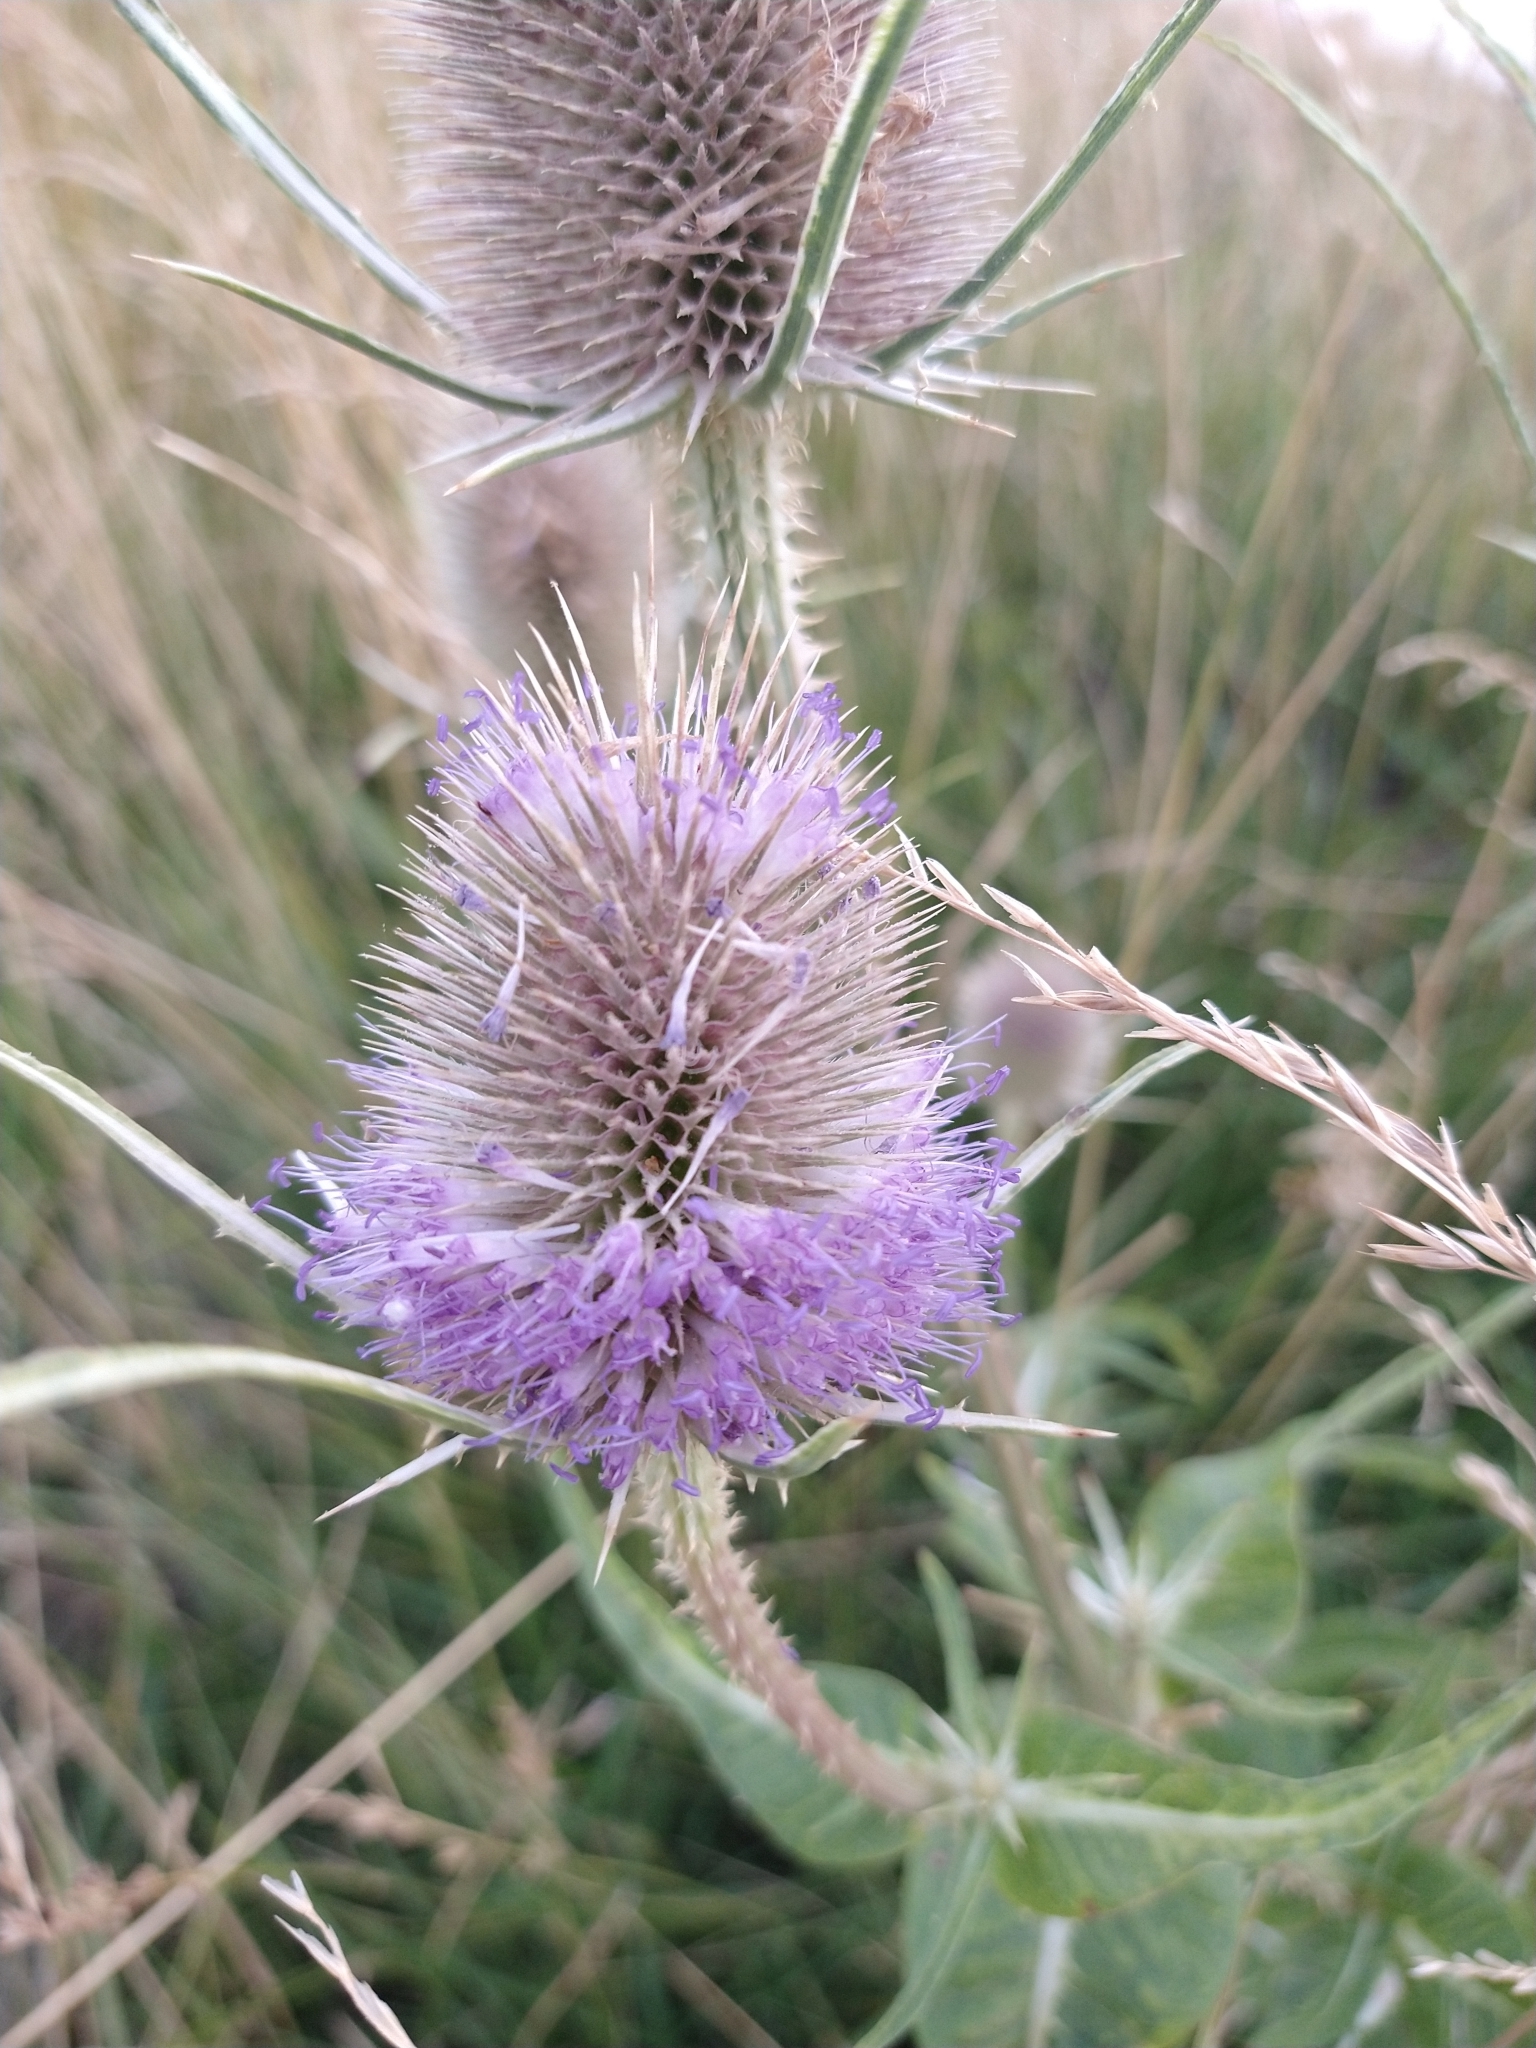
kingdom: Plantae
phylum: Tracheophyta
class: Magnoliopsida
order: Dipsacales
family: Caprifoliaceae
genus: Dipsacus
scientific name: Dipsacus fullonum
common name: Teasel
